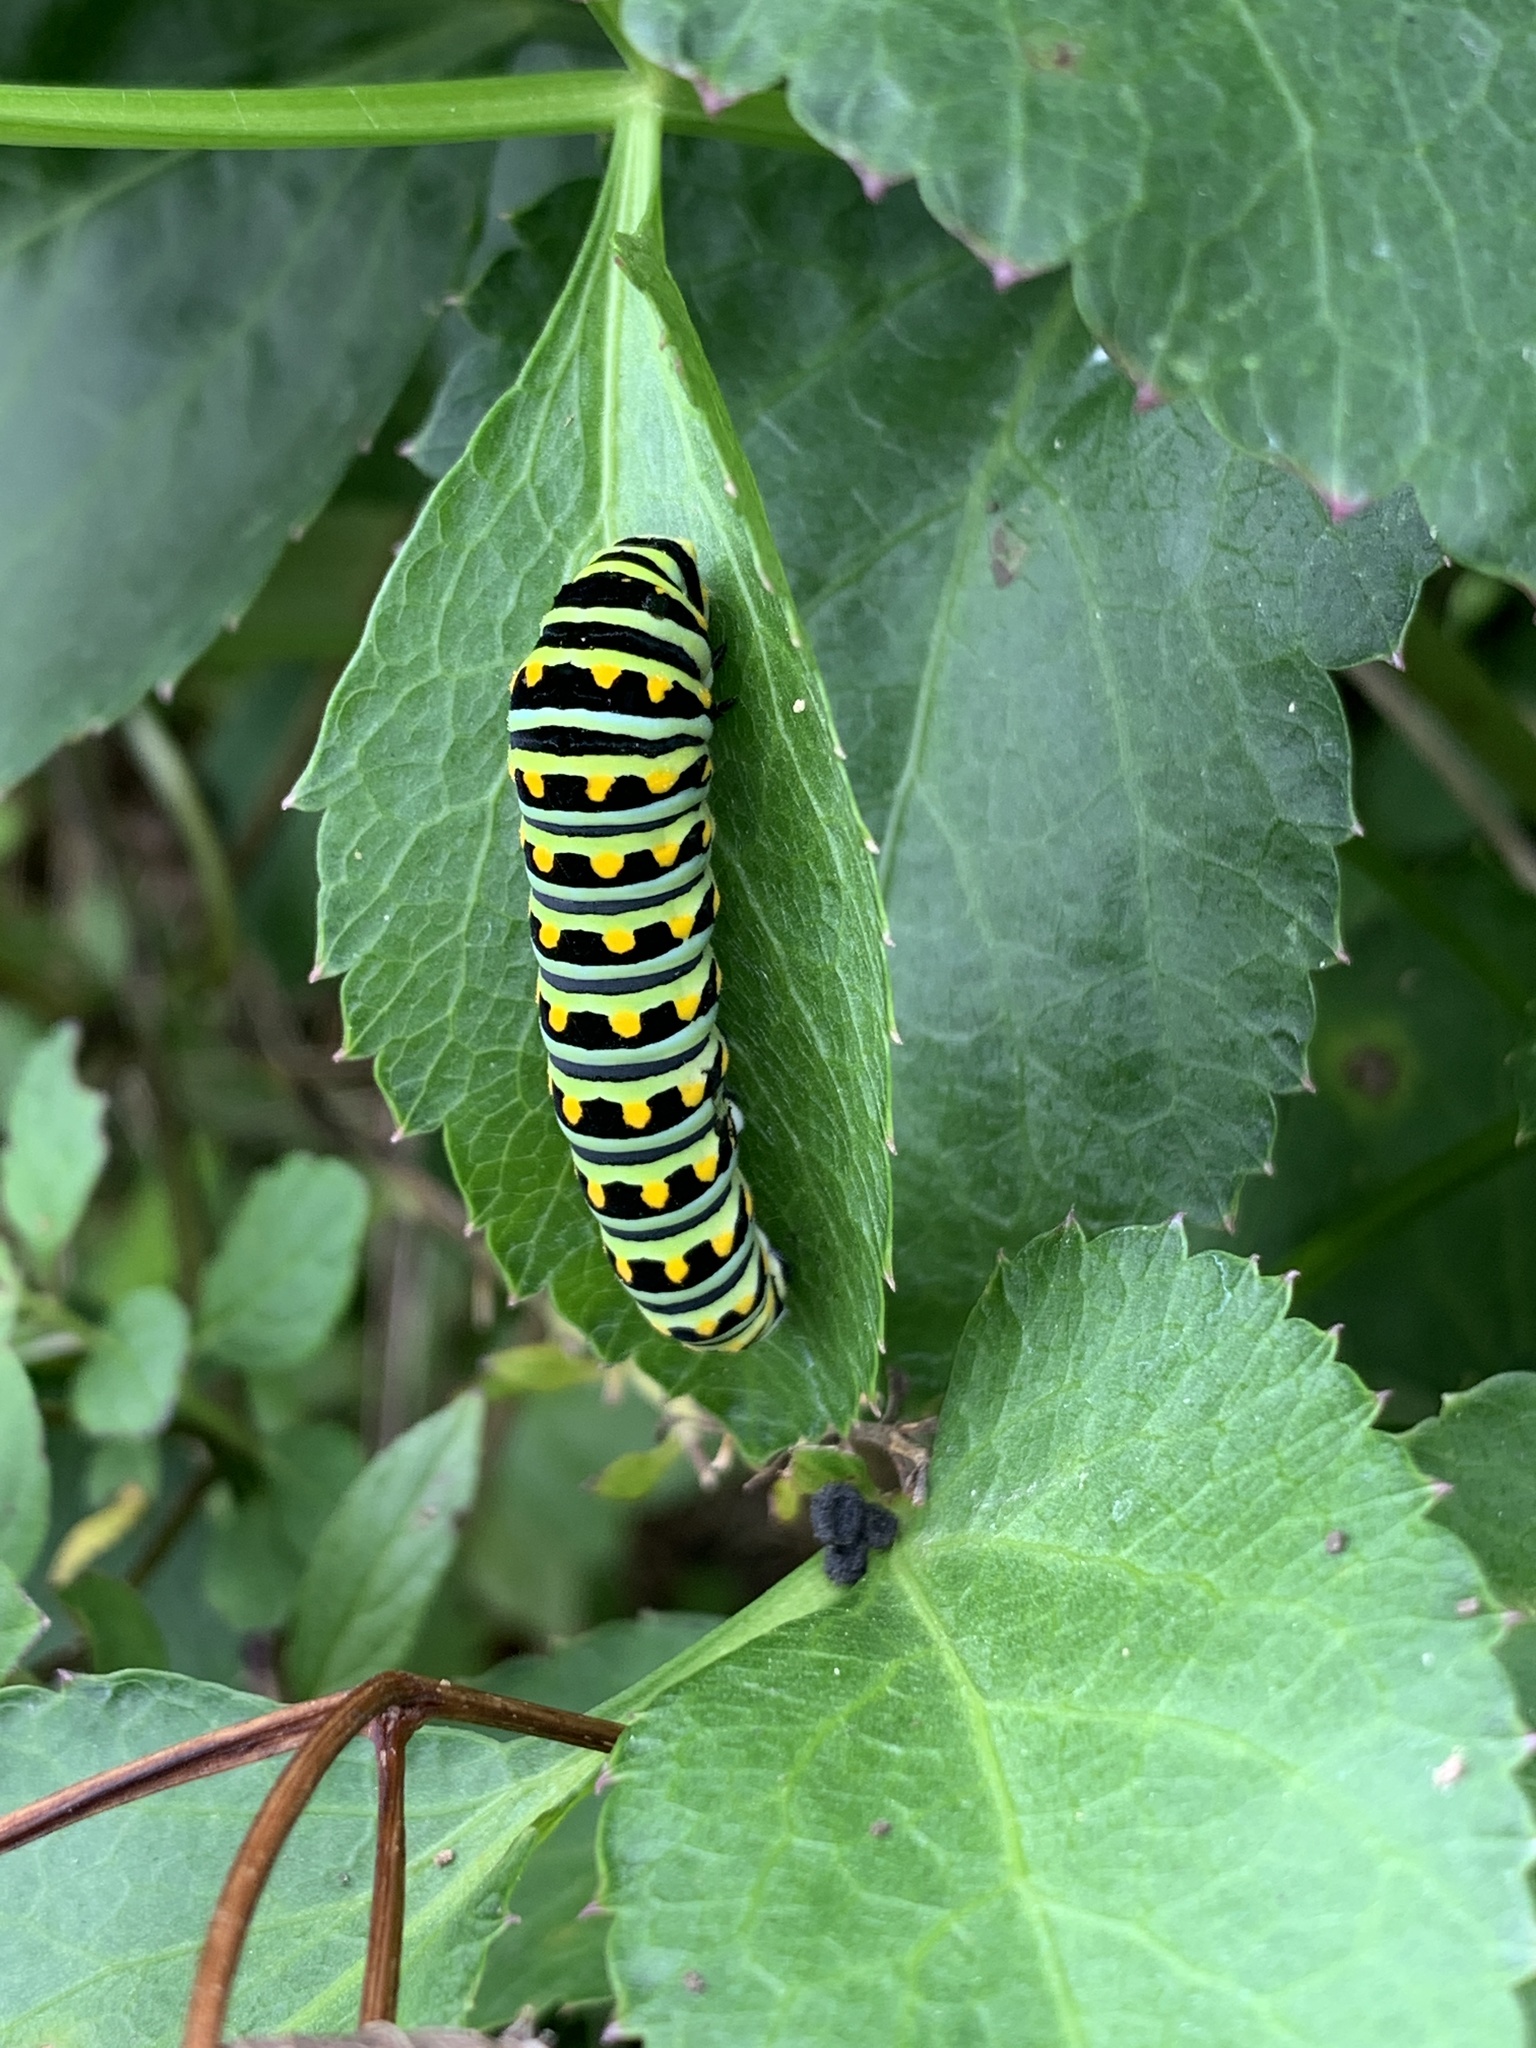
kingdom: Animalia
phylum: Arthropoda
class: Insecta
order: Lepidoptera
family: Papilionidae
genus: Papilio
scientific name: Papilio polyxenes
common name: Black swallowtail
